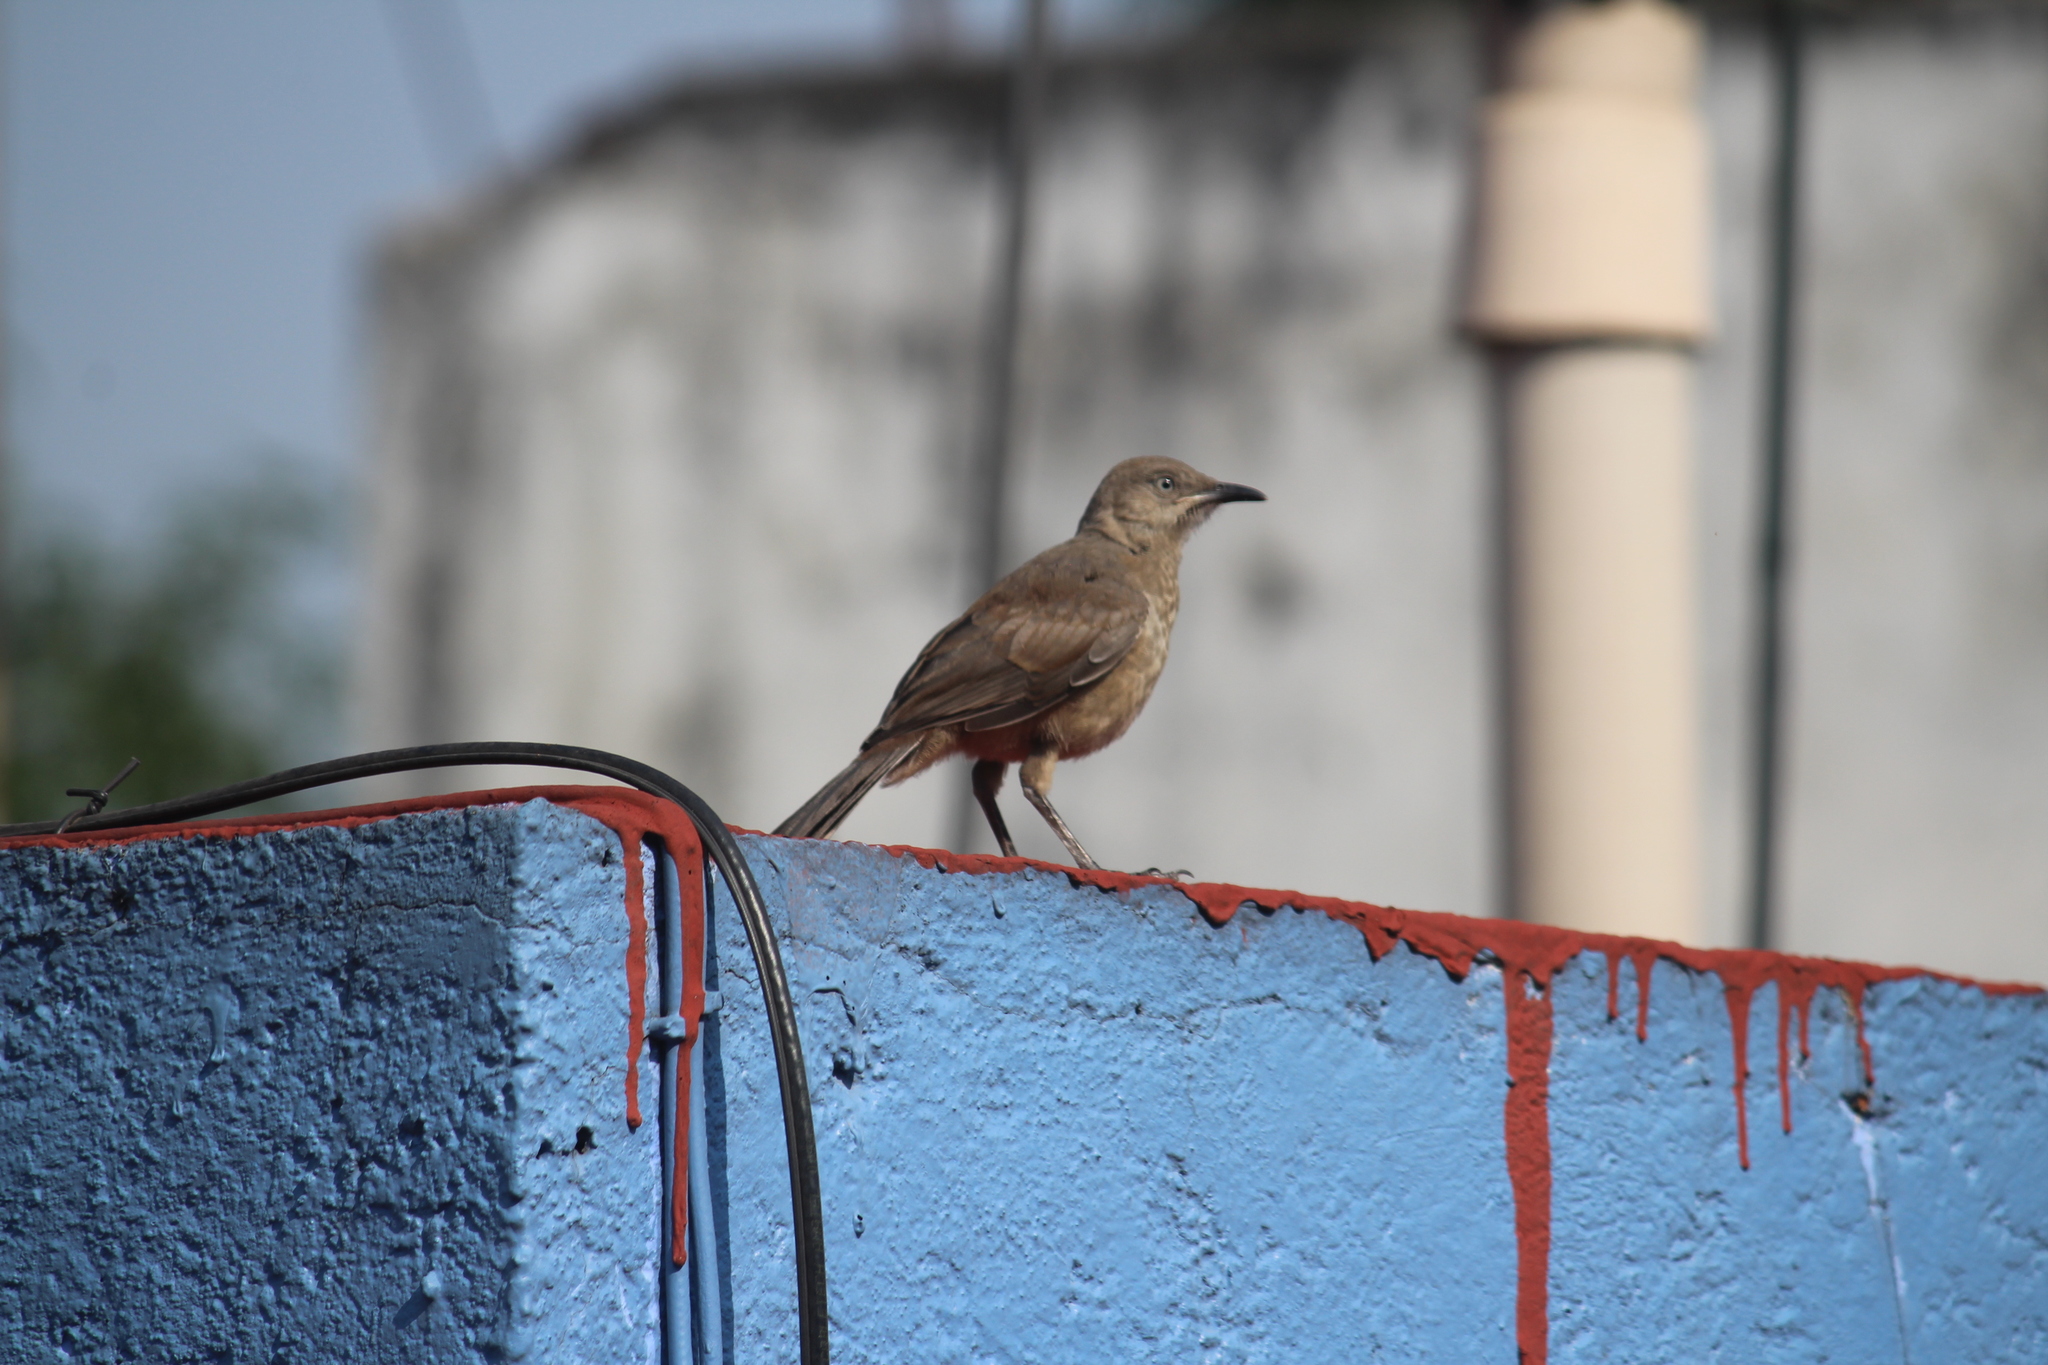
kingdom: Animalia
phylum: Chordata
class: Aves
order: Passeriformes
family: Mimidae
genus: Toxostoma
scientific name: Toxostoma curvirostre
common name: Curve-billed thrasher
